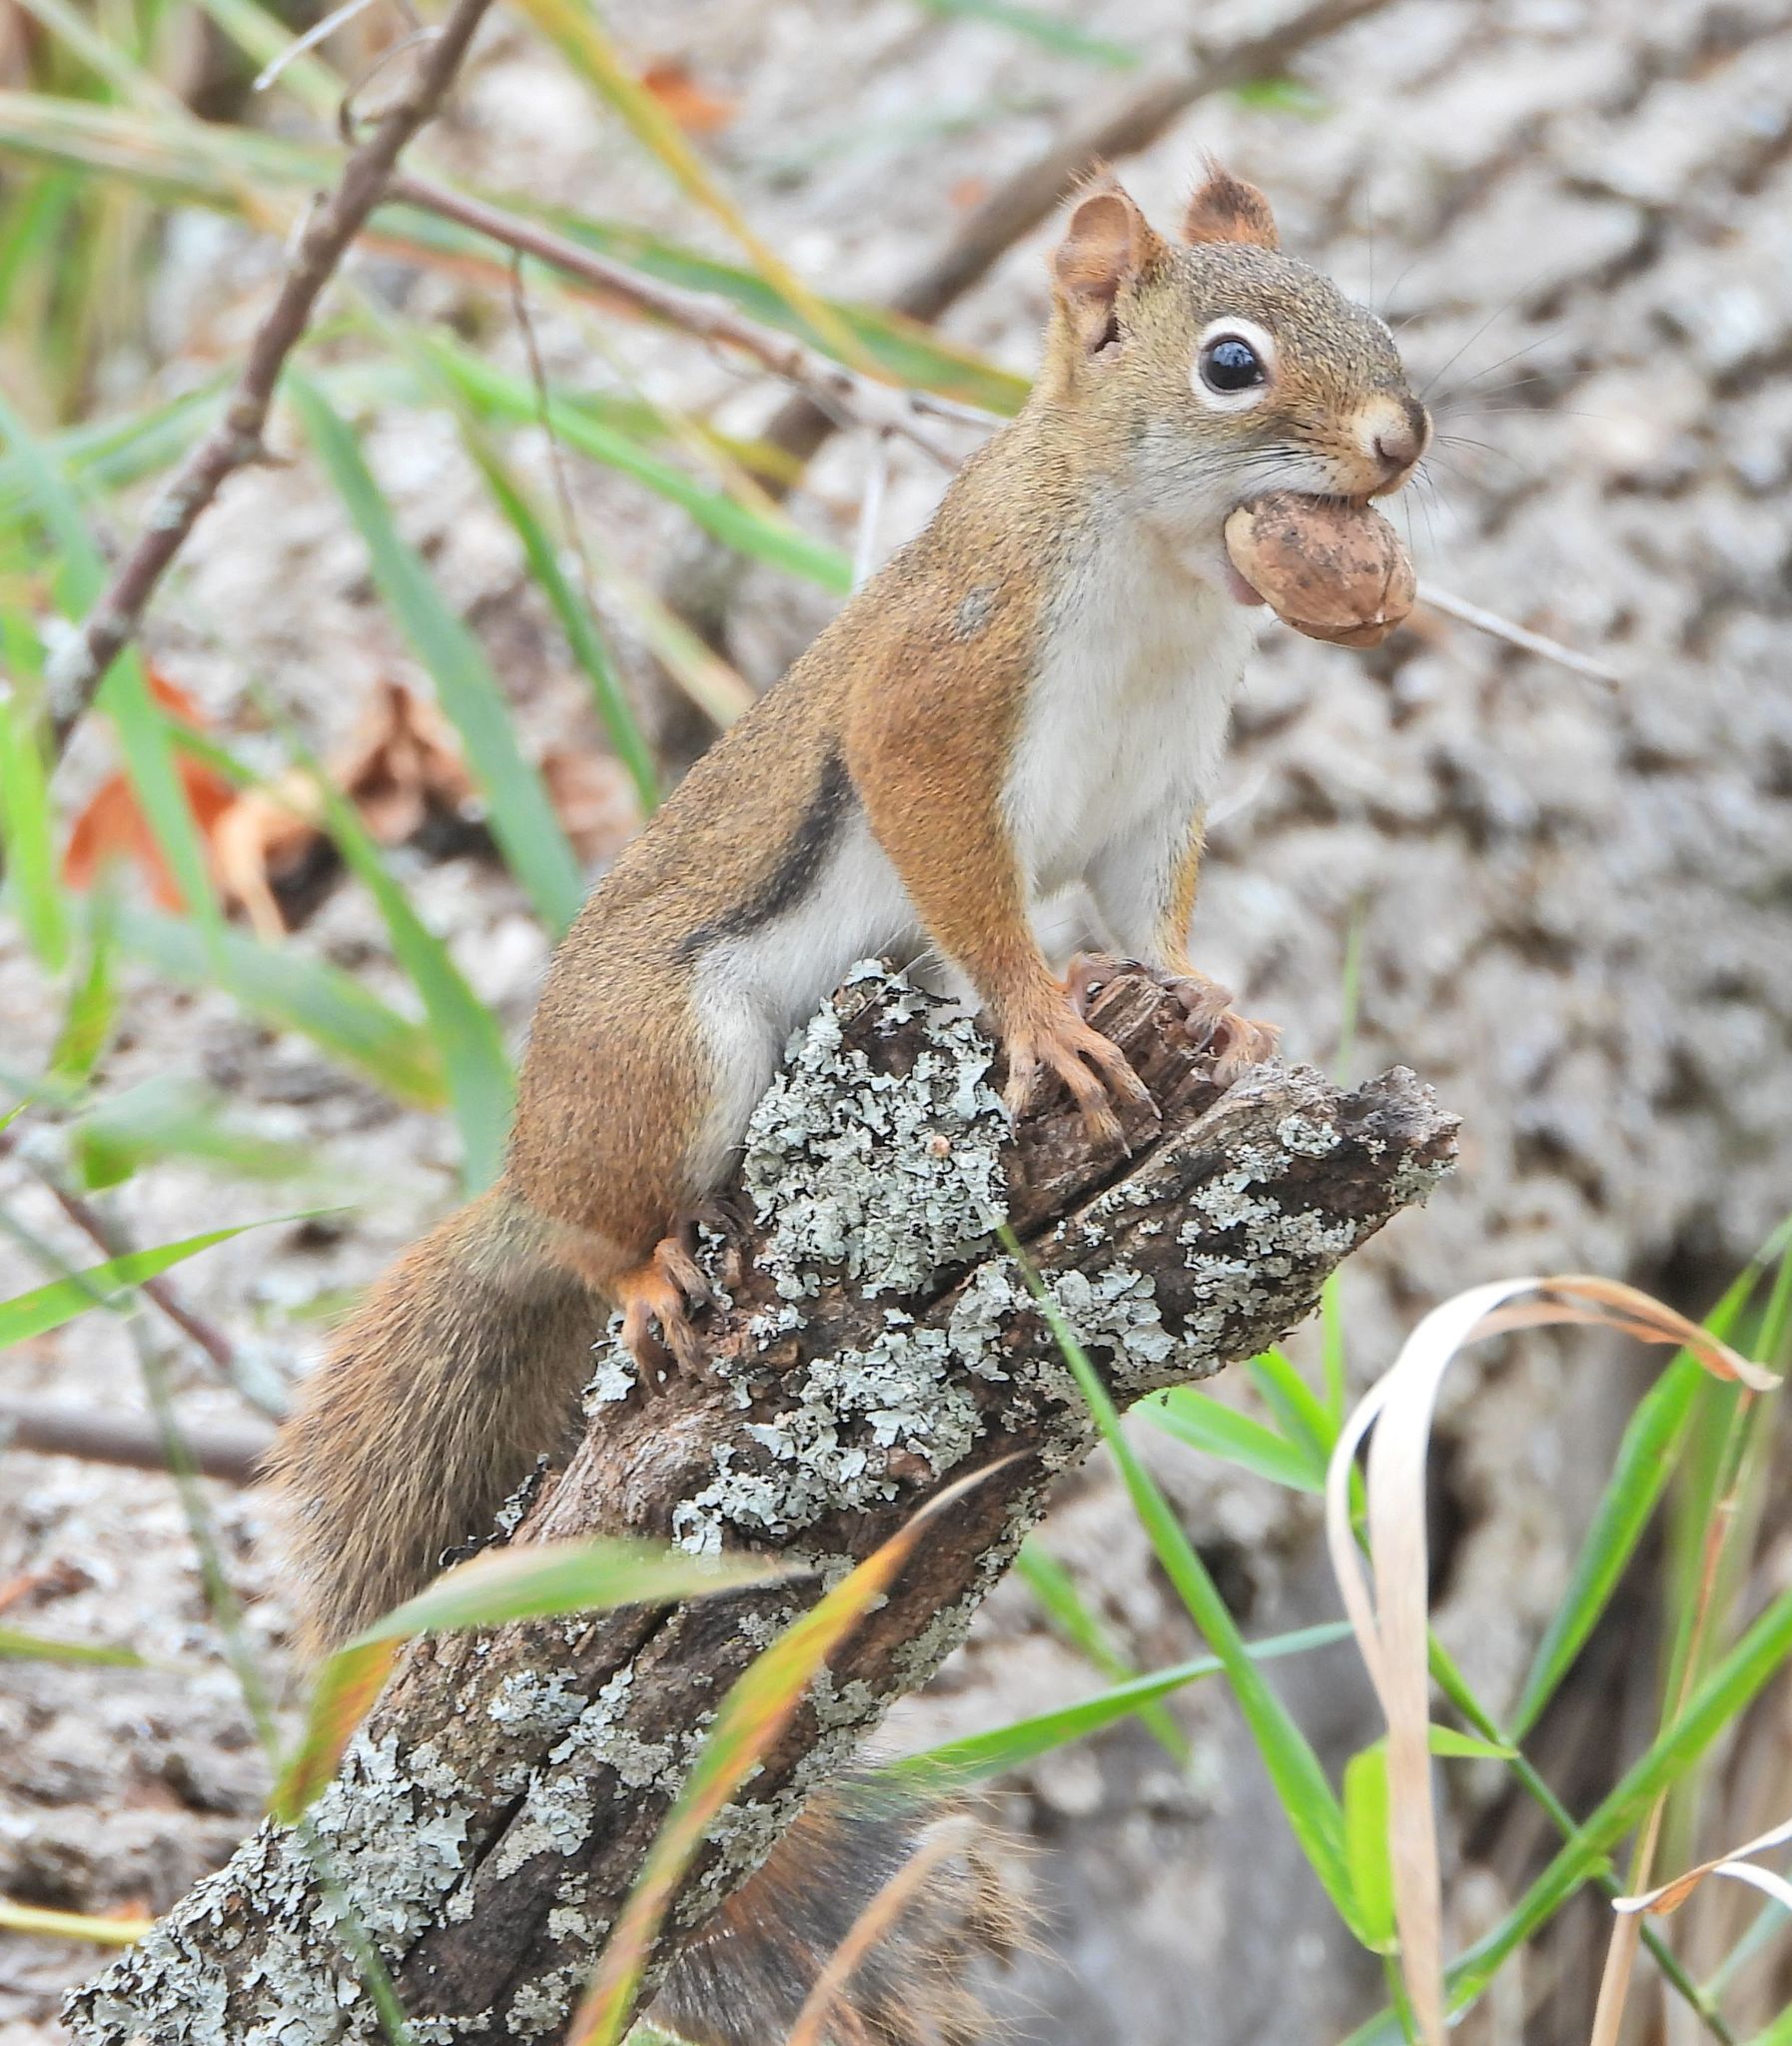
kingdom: Animalia
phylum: Chordata
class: Mammalia
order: Rodentia
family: Sciuridae
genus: Tamiasciurus
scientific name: Tamiasciurus hudsonicus
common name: Red squirrel
